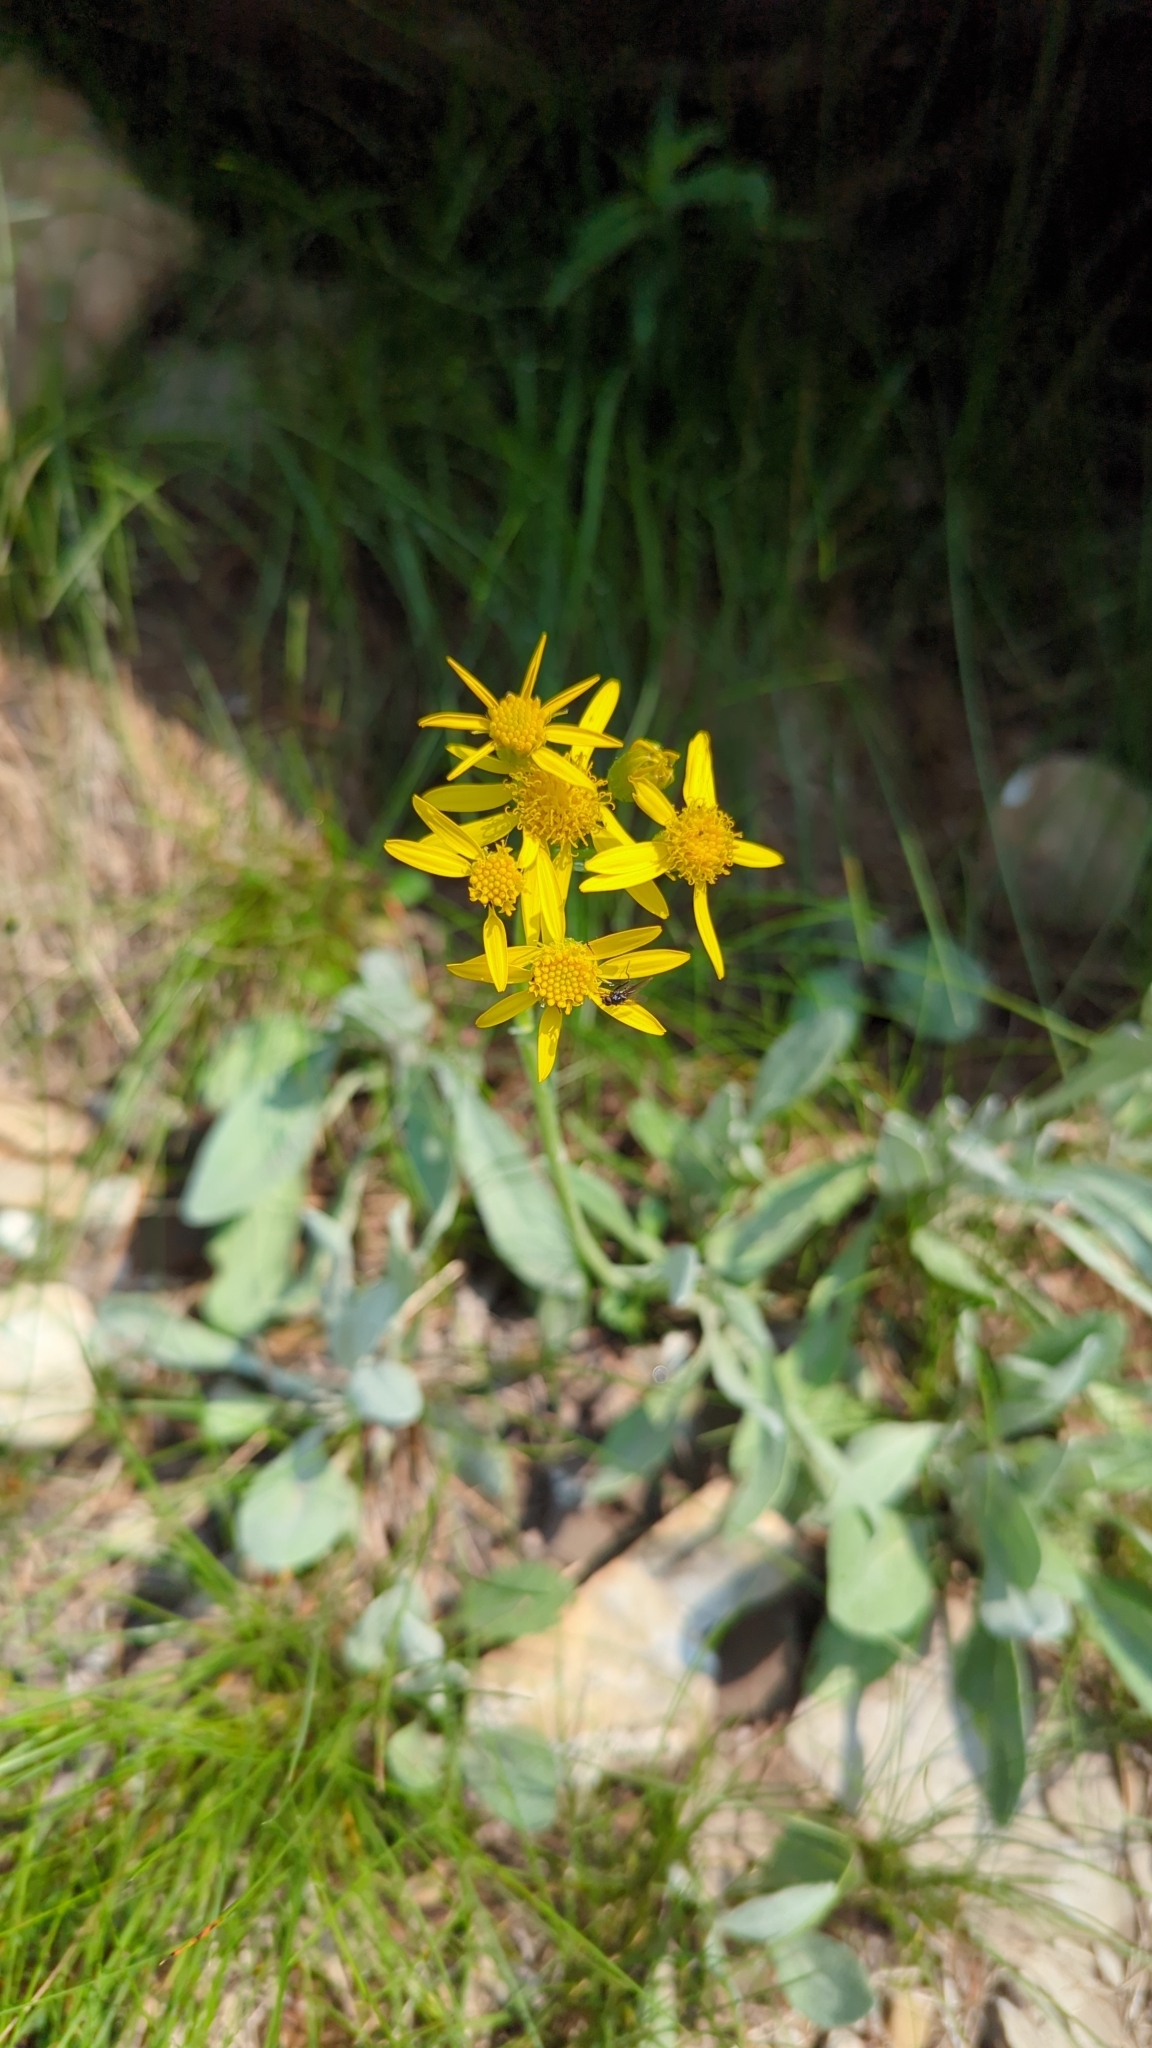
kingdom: Plantae
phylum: Tracheophyta
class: Magnoliopsida
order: Asterales
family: Asteraceae
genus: Packera
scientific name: Packera cana
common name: Woolly groundsel
